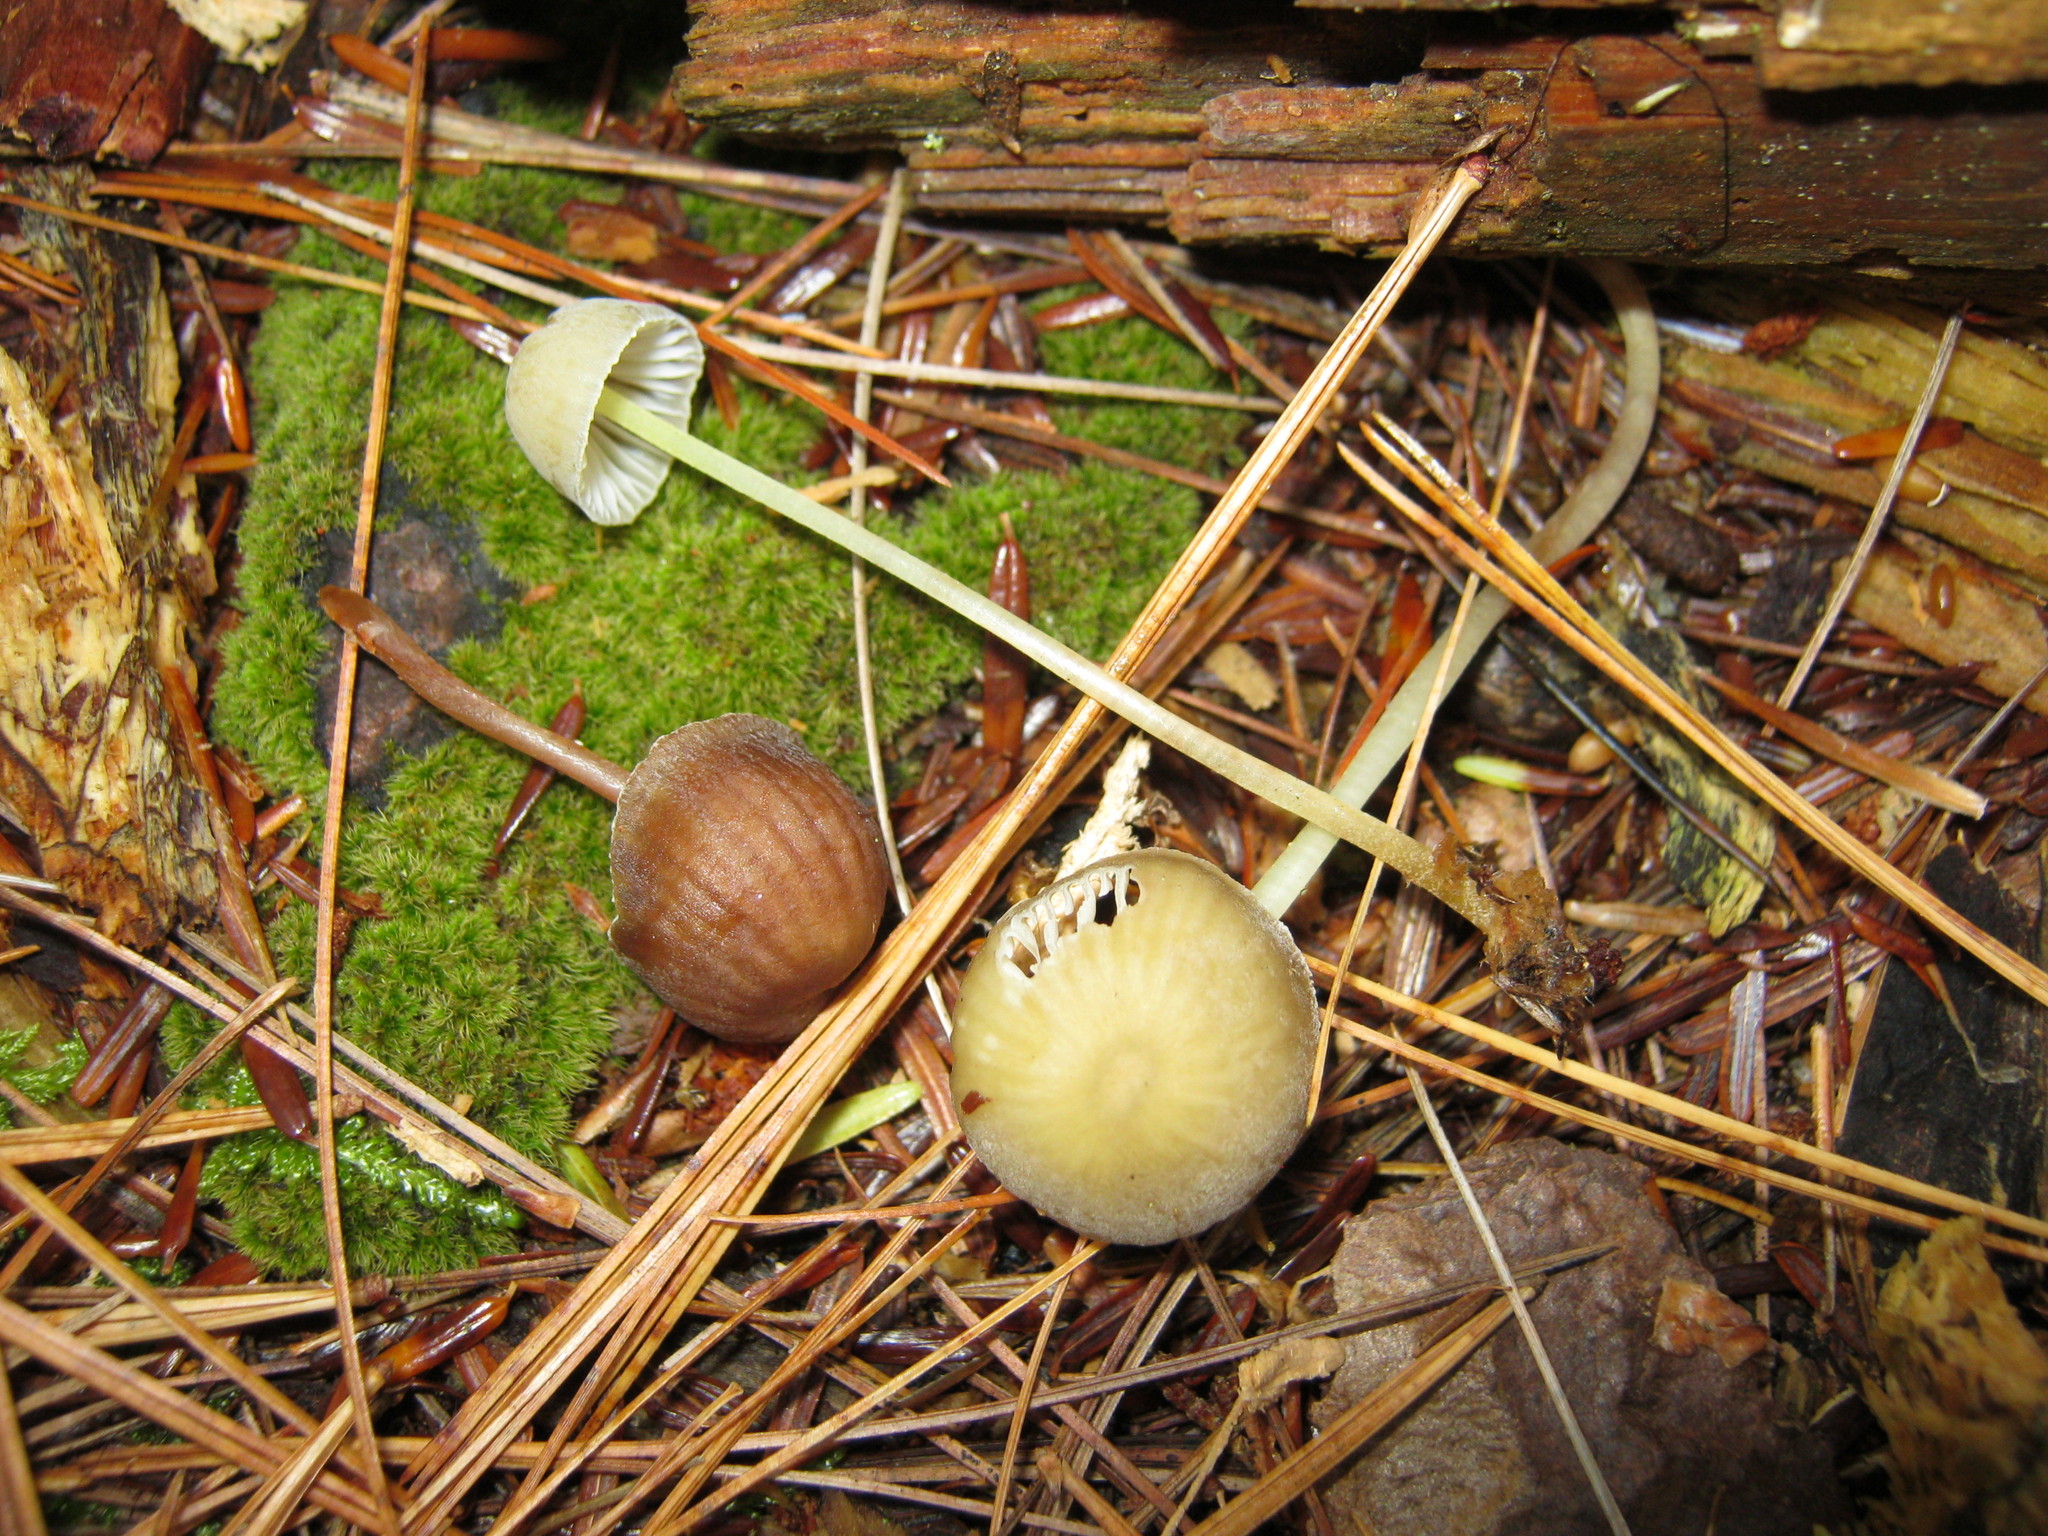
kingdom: Fungi
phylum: Basidiomycota
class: Agaricomycetes
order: Agaricales
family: Mycenaceae
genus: Mycena
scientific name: Mycena epipterygia
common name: Yellowleg bonnet
